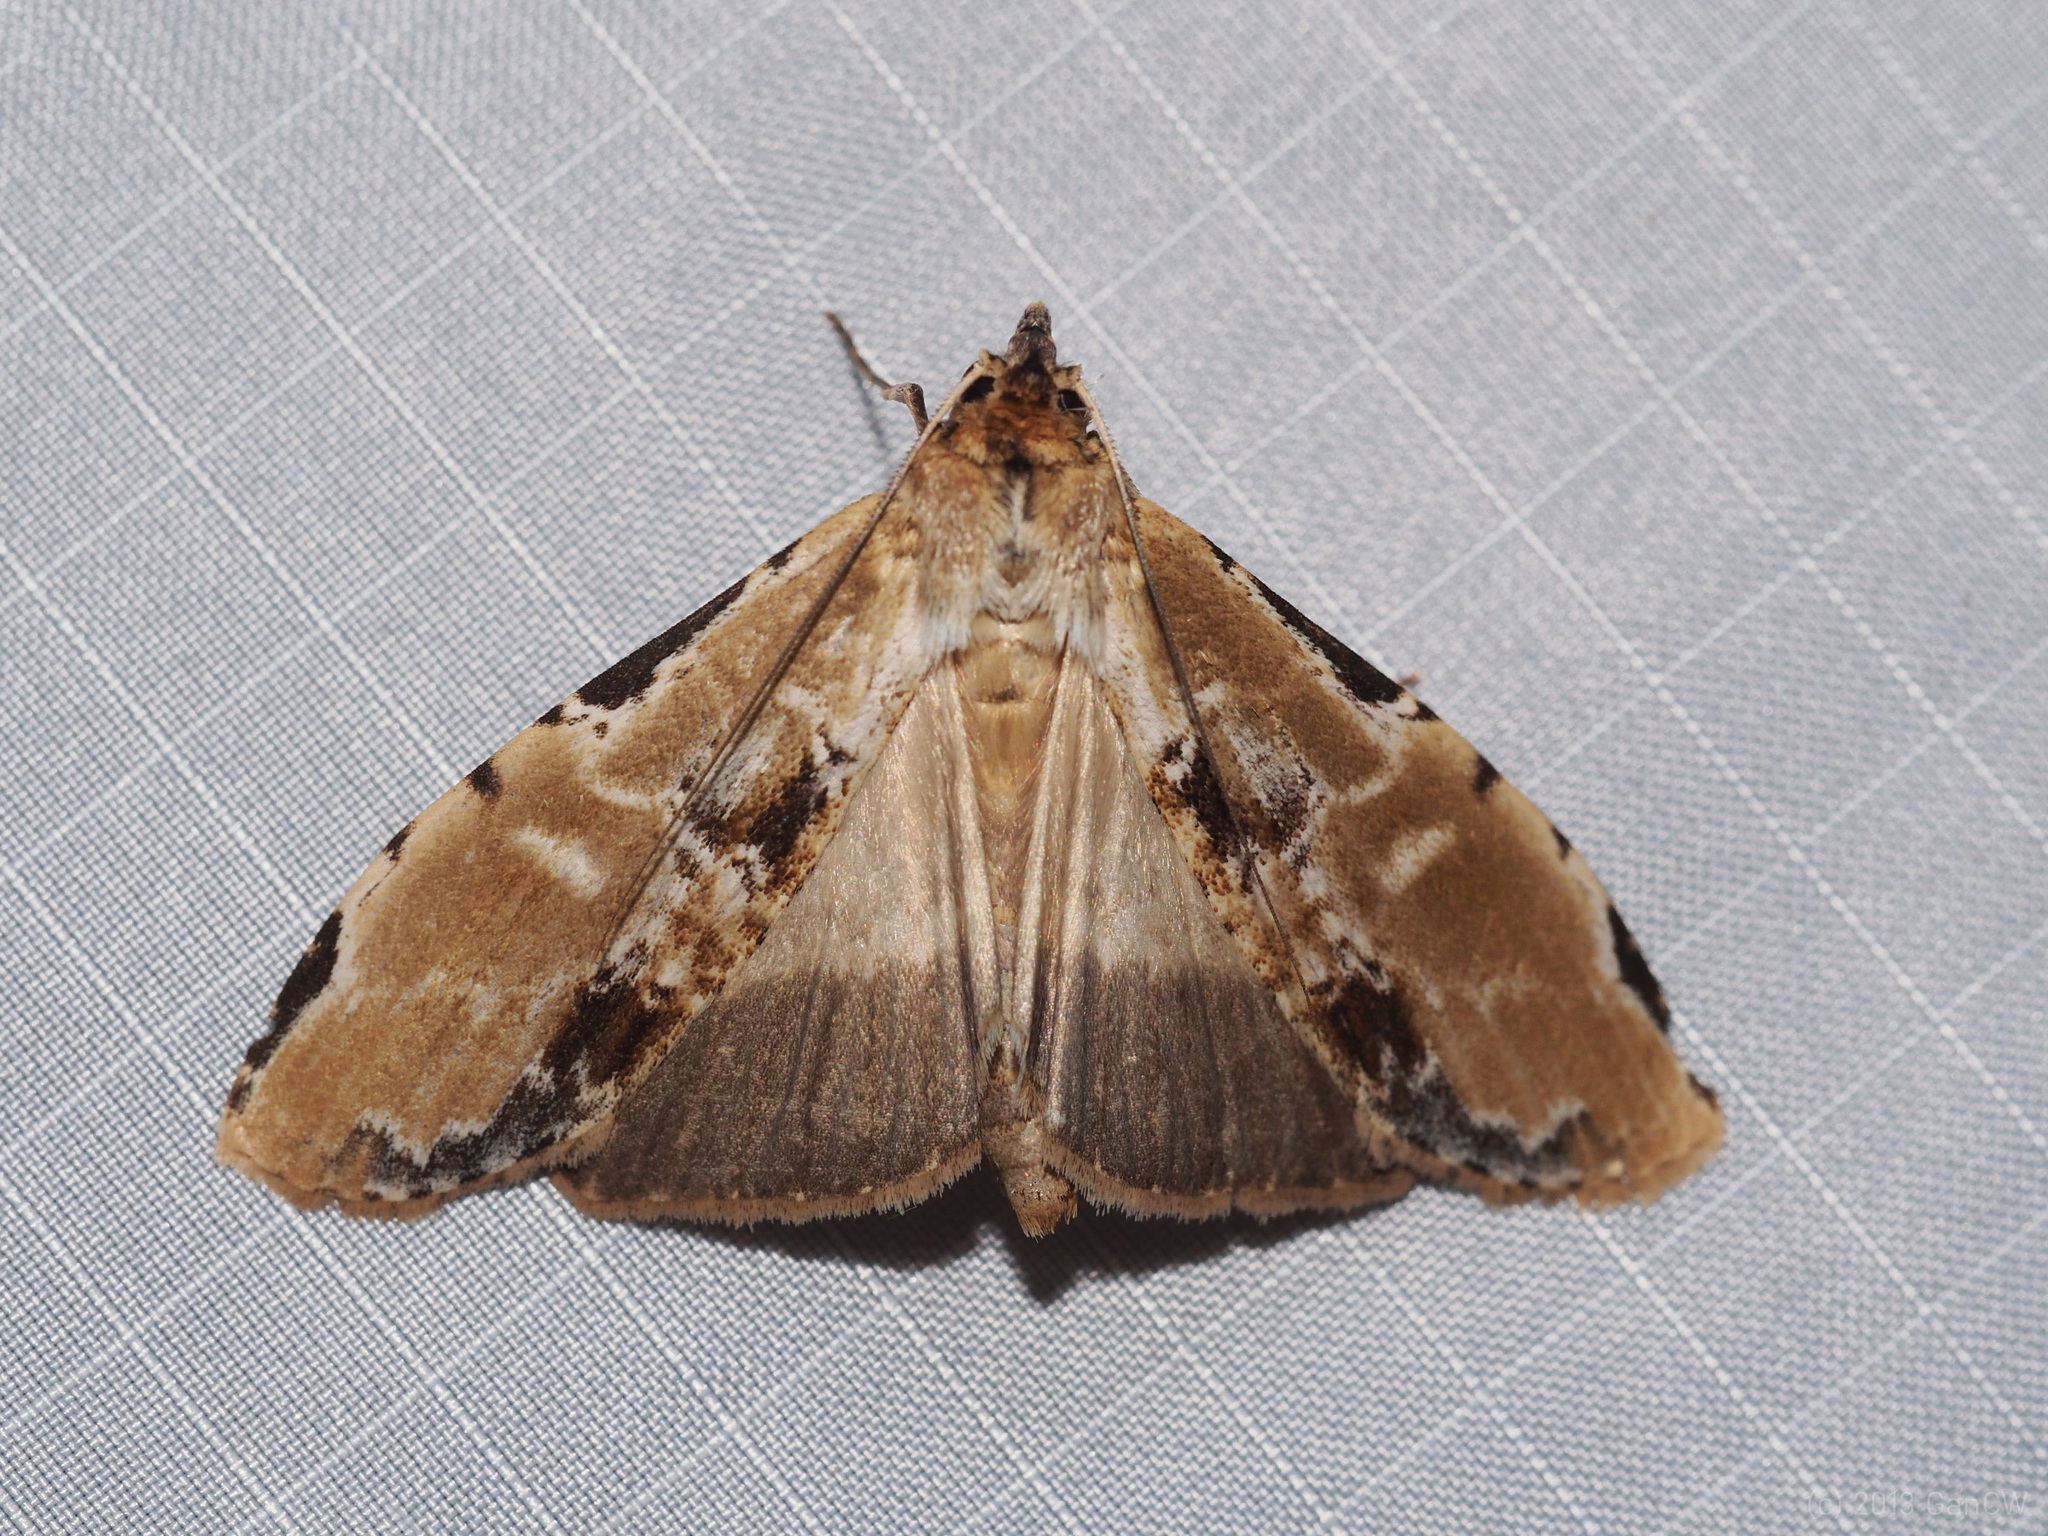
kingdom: Animalia
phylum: Arthropoda
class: Insecta
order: Lepidoptera
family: Notodontidae
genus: Thacona
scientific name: Thacona
